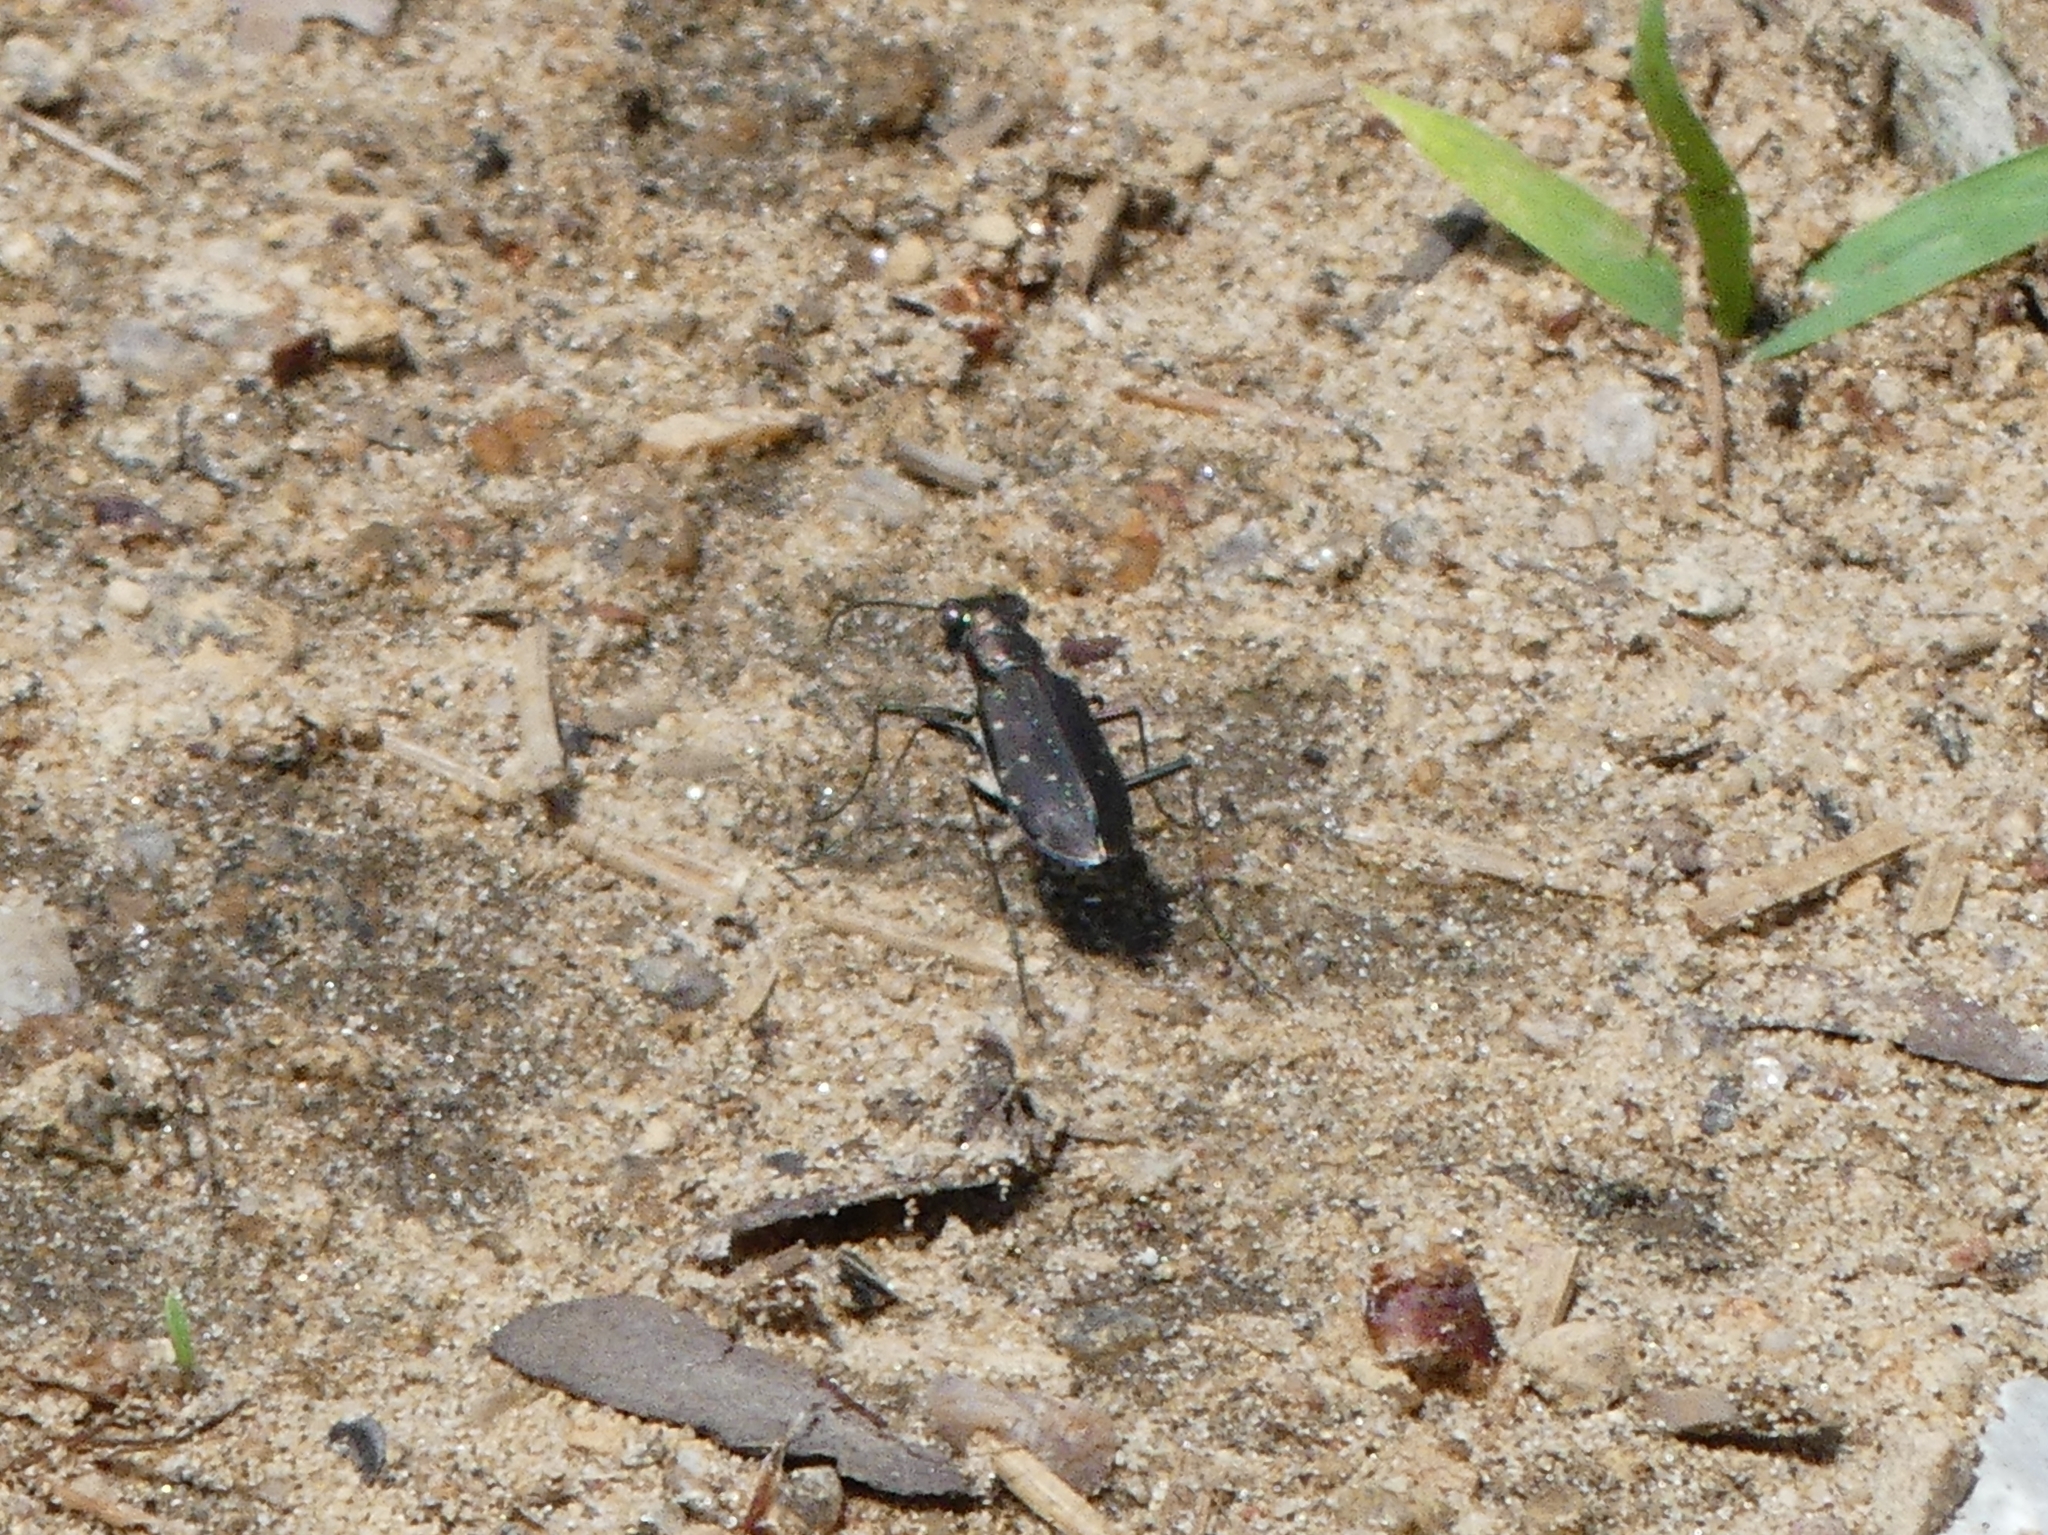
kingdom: Animalia
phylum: Arthropoda
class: Insecta
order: Coleoptera
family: Carabidae
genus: Cicindela
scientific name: Cicindela punctulata
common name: Punctured tiger beetle
